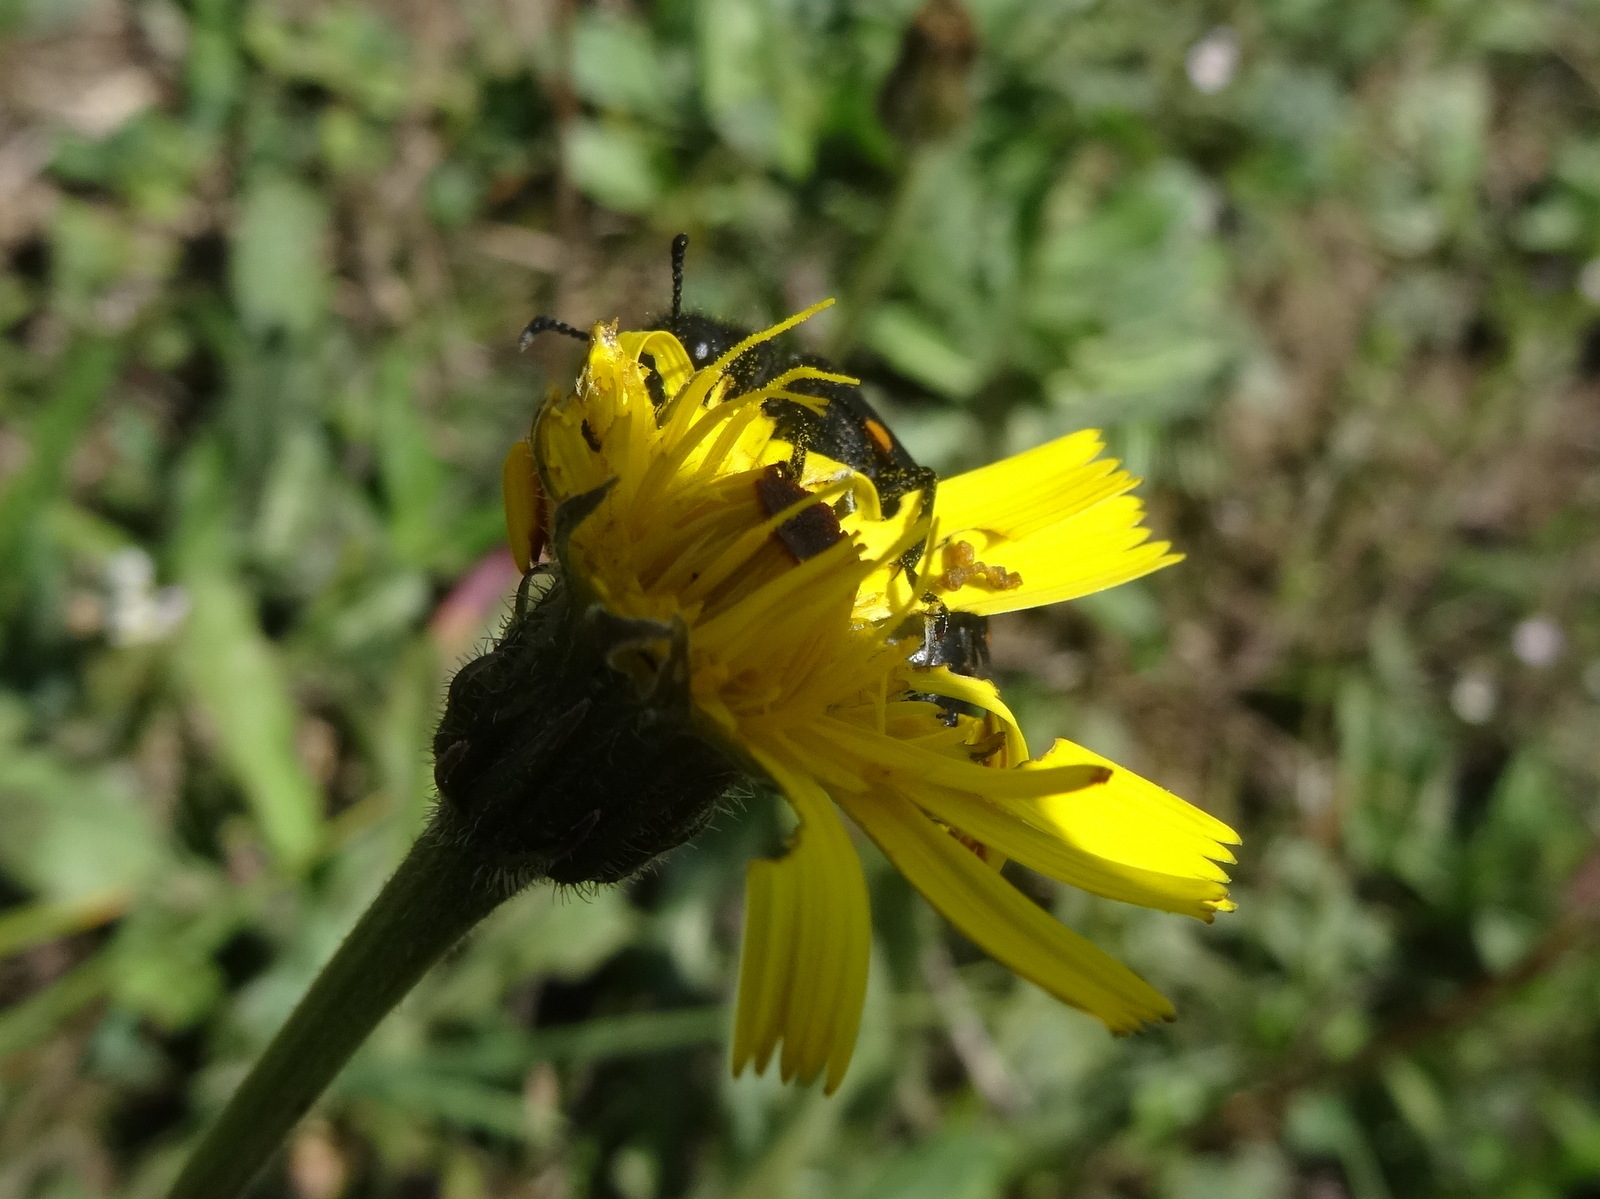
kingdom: Animalia
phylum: Arthropoda
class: Insecta
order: Coleoptera
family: Meloidae
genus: Hycleus
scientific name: Hycleus polymorphus
